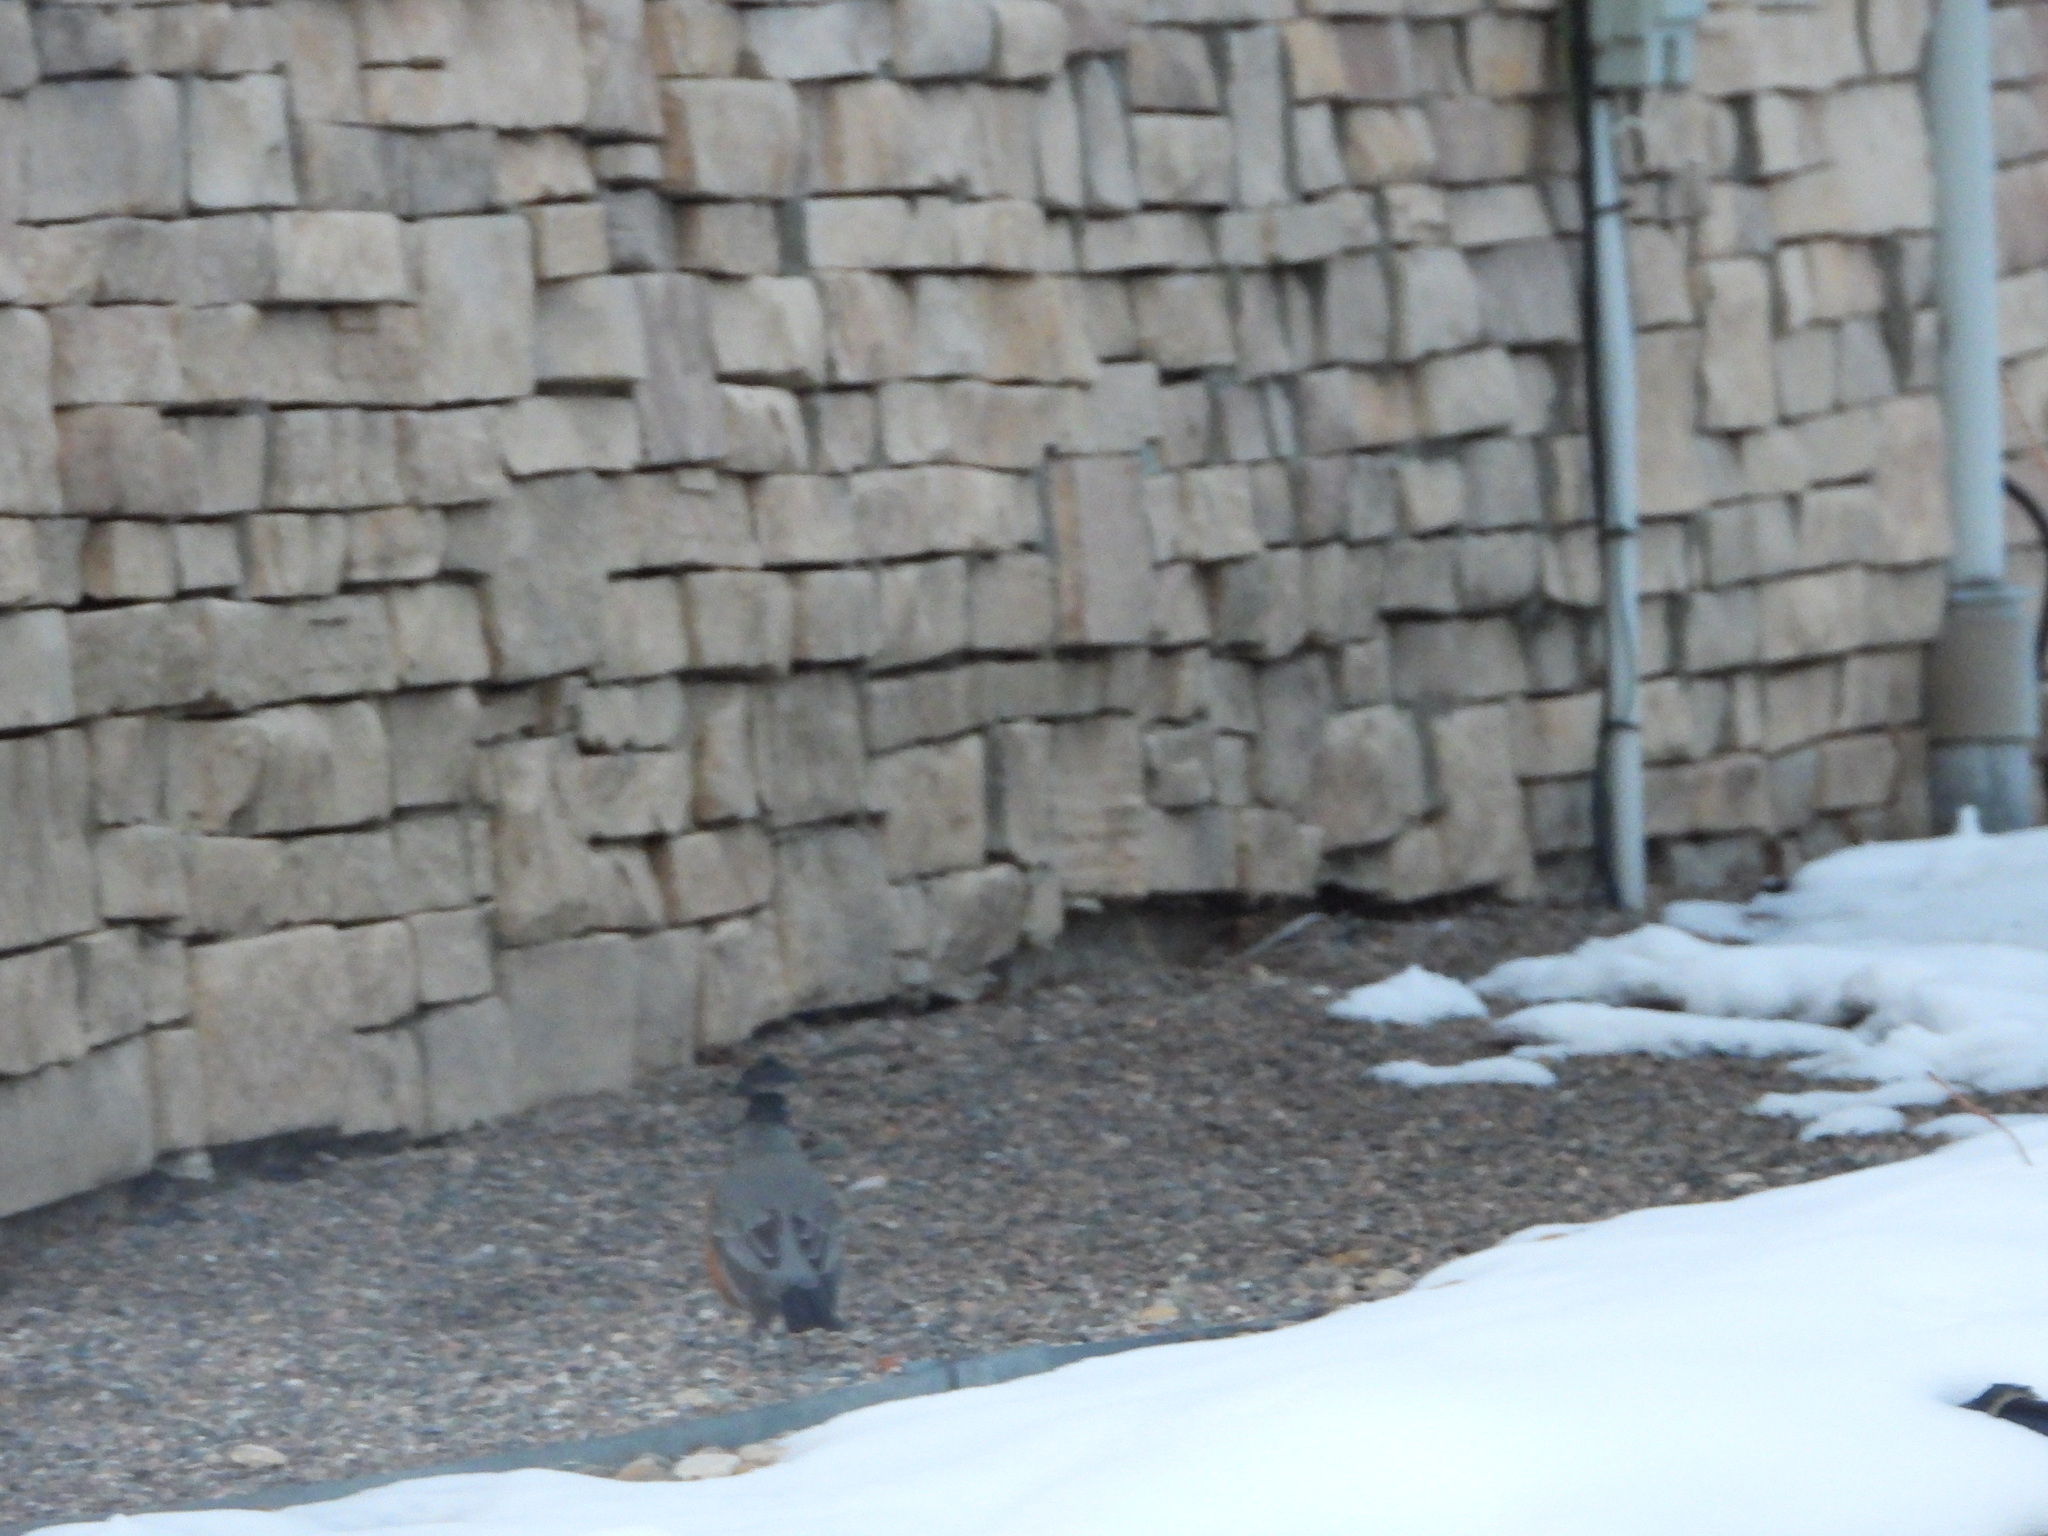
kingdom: Animalia
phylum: Chordata
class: Aves
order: Passeriformes
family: Turdidae
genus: Turdus
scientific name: Turdus migratorius
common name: American robin
